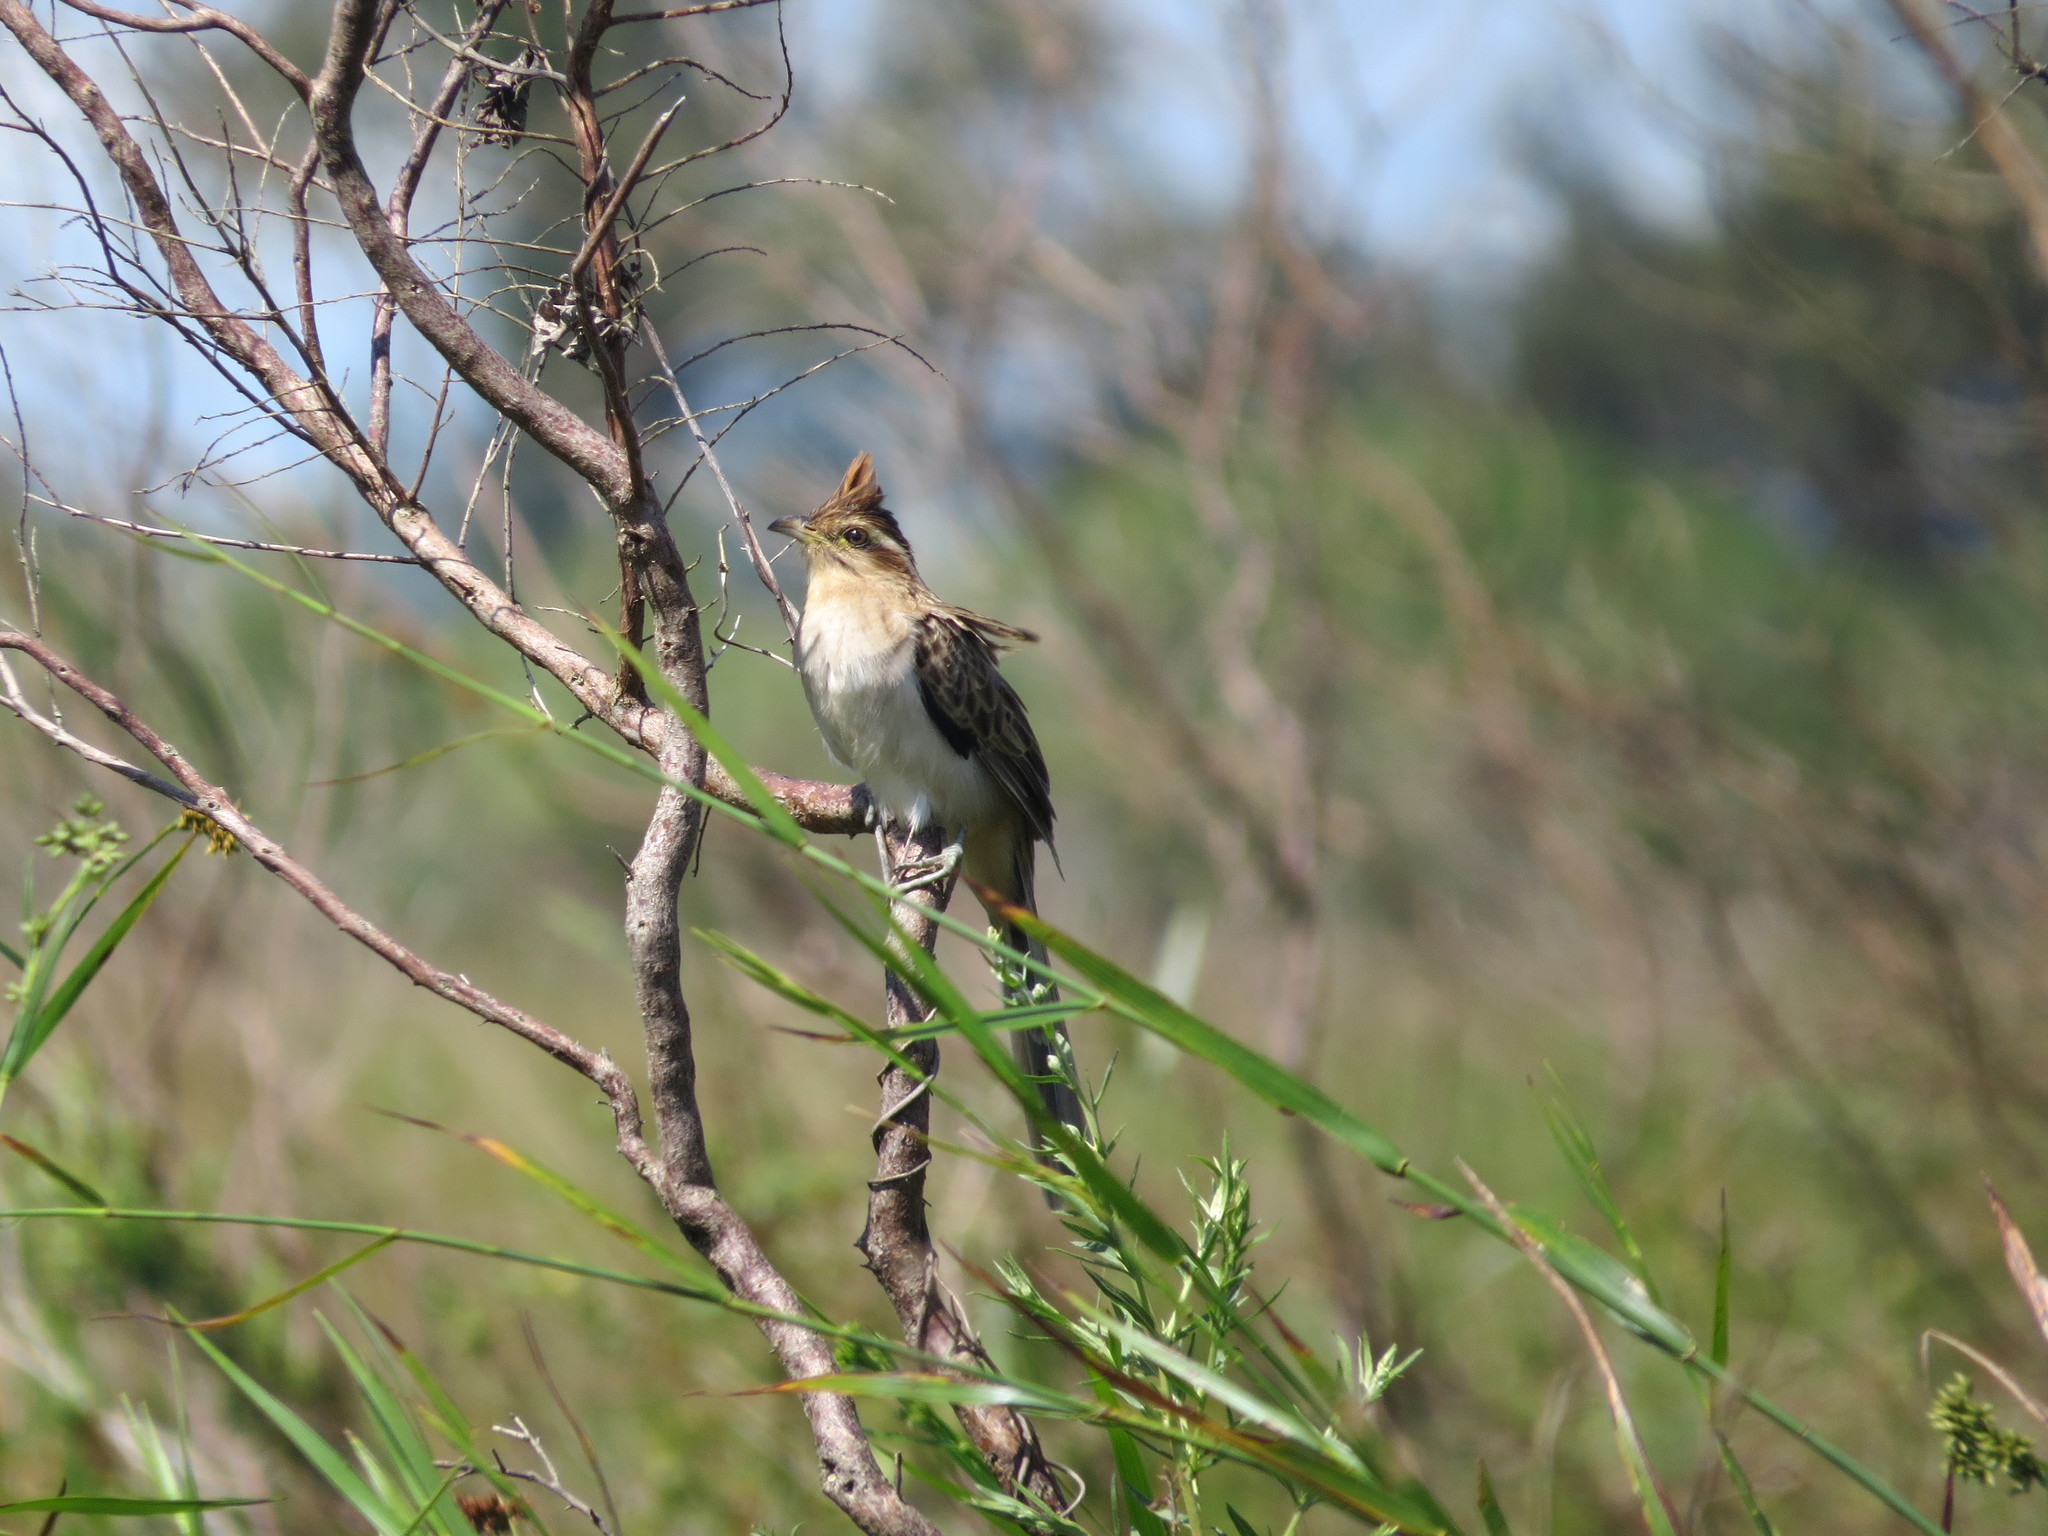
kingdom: Animalia
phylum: Chordata
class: Aves
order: Cuculiformes
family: Cuculidae
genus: Tapera
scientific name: Tapera naevia
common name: Striped cuckoo
